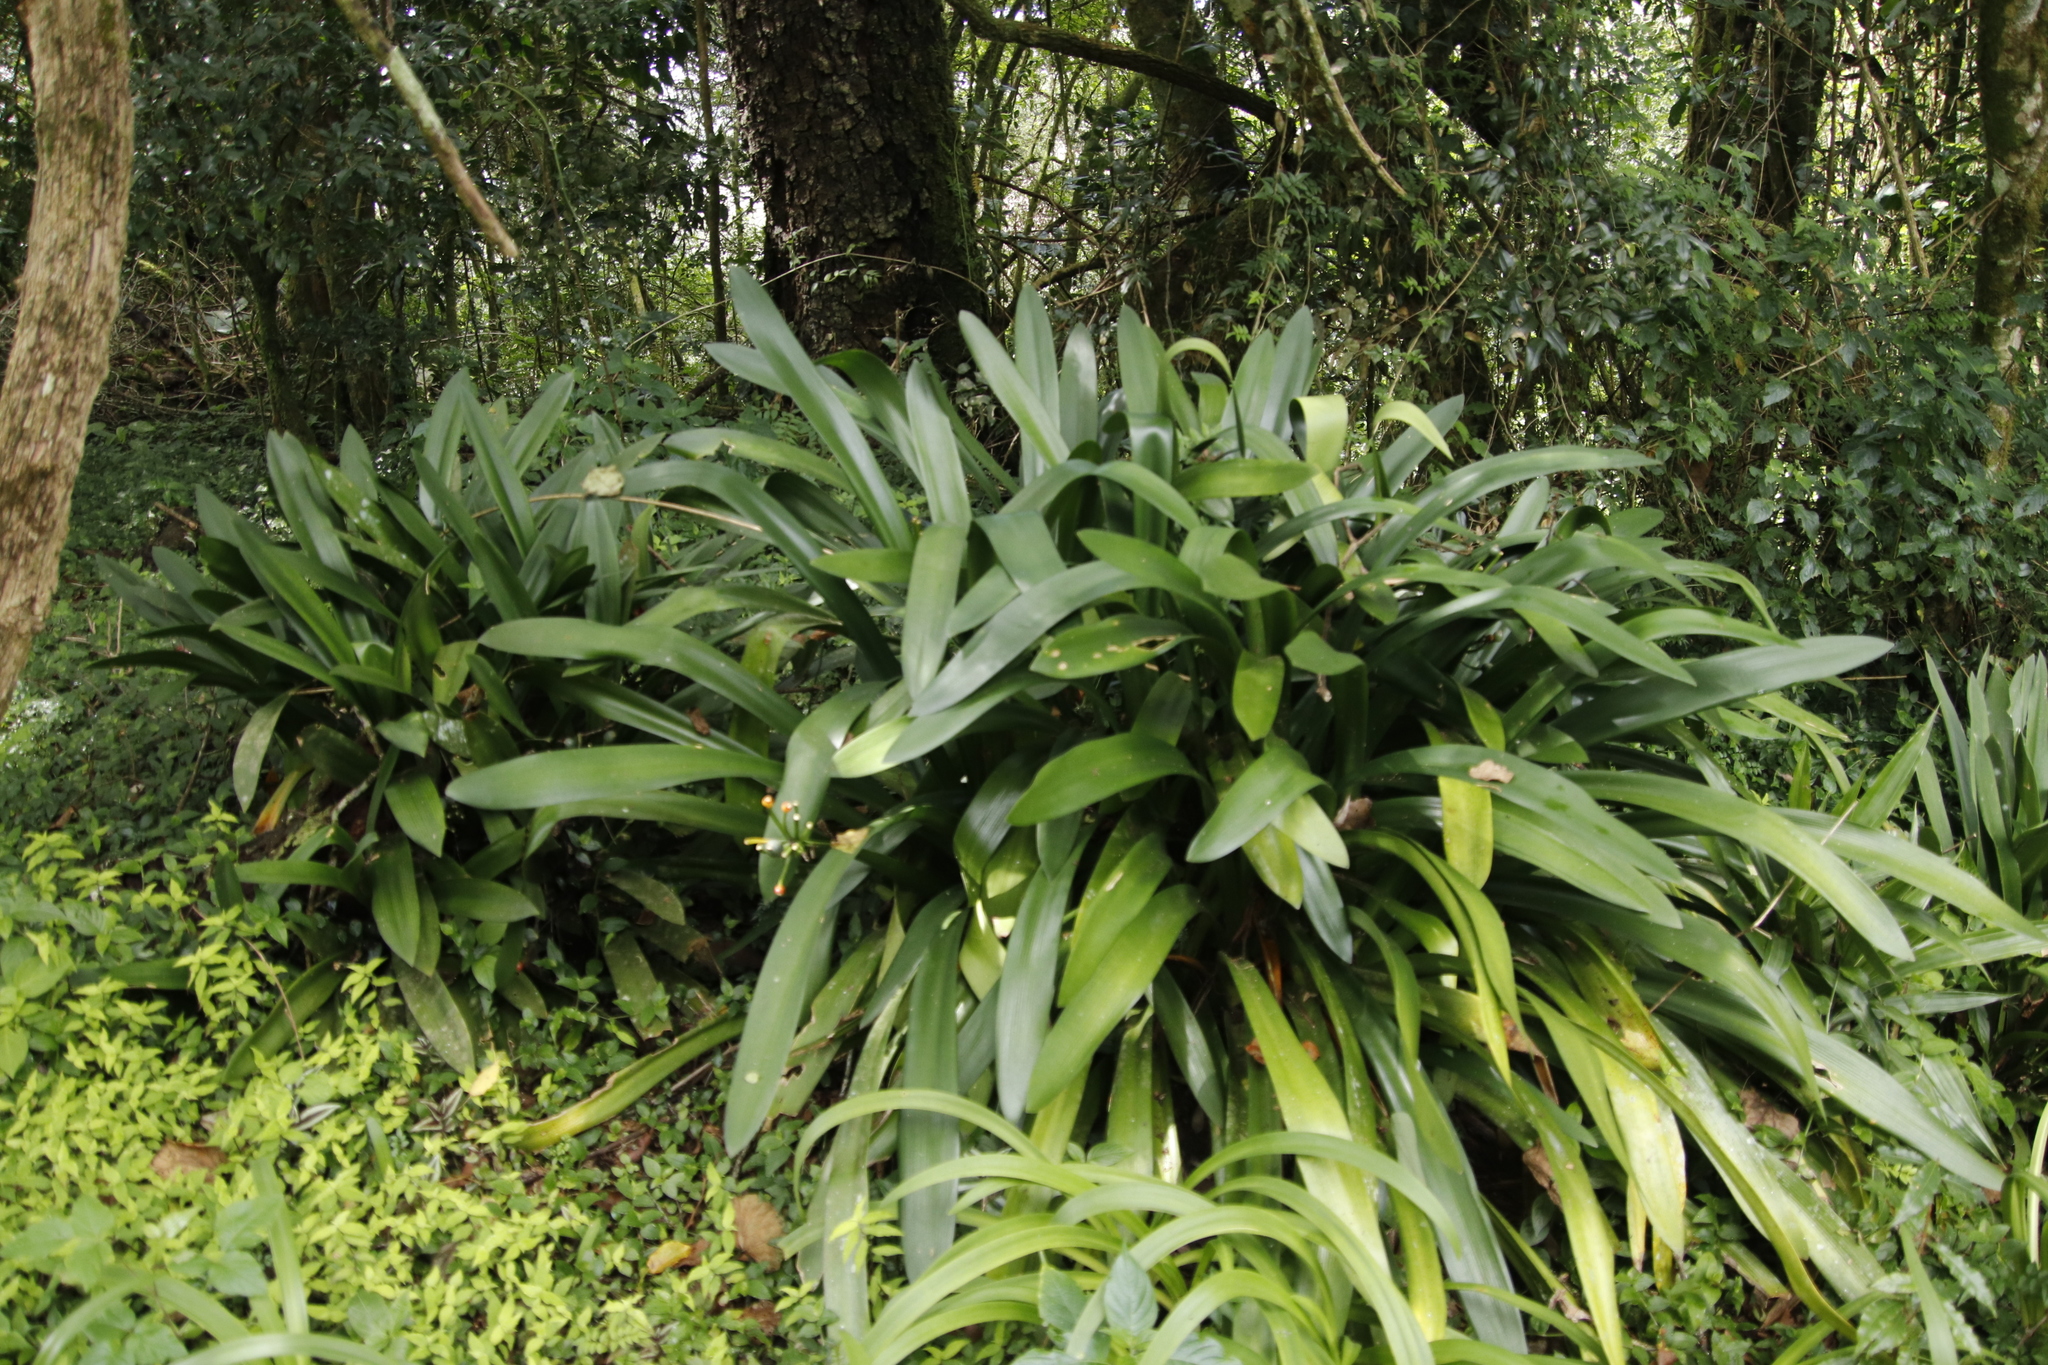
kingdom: Plantae
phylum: Tracheophyta
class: Liliopsida
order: Asparagales
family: Amaryllidaceae
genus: Clivia
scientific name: Clivia miniata
